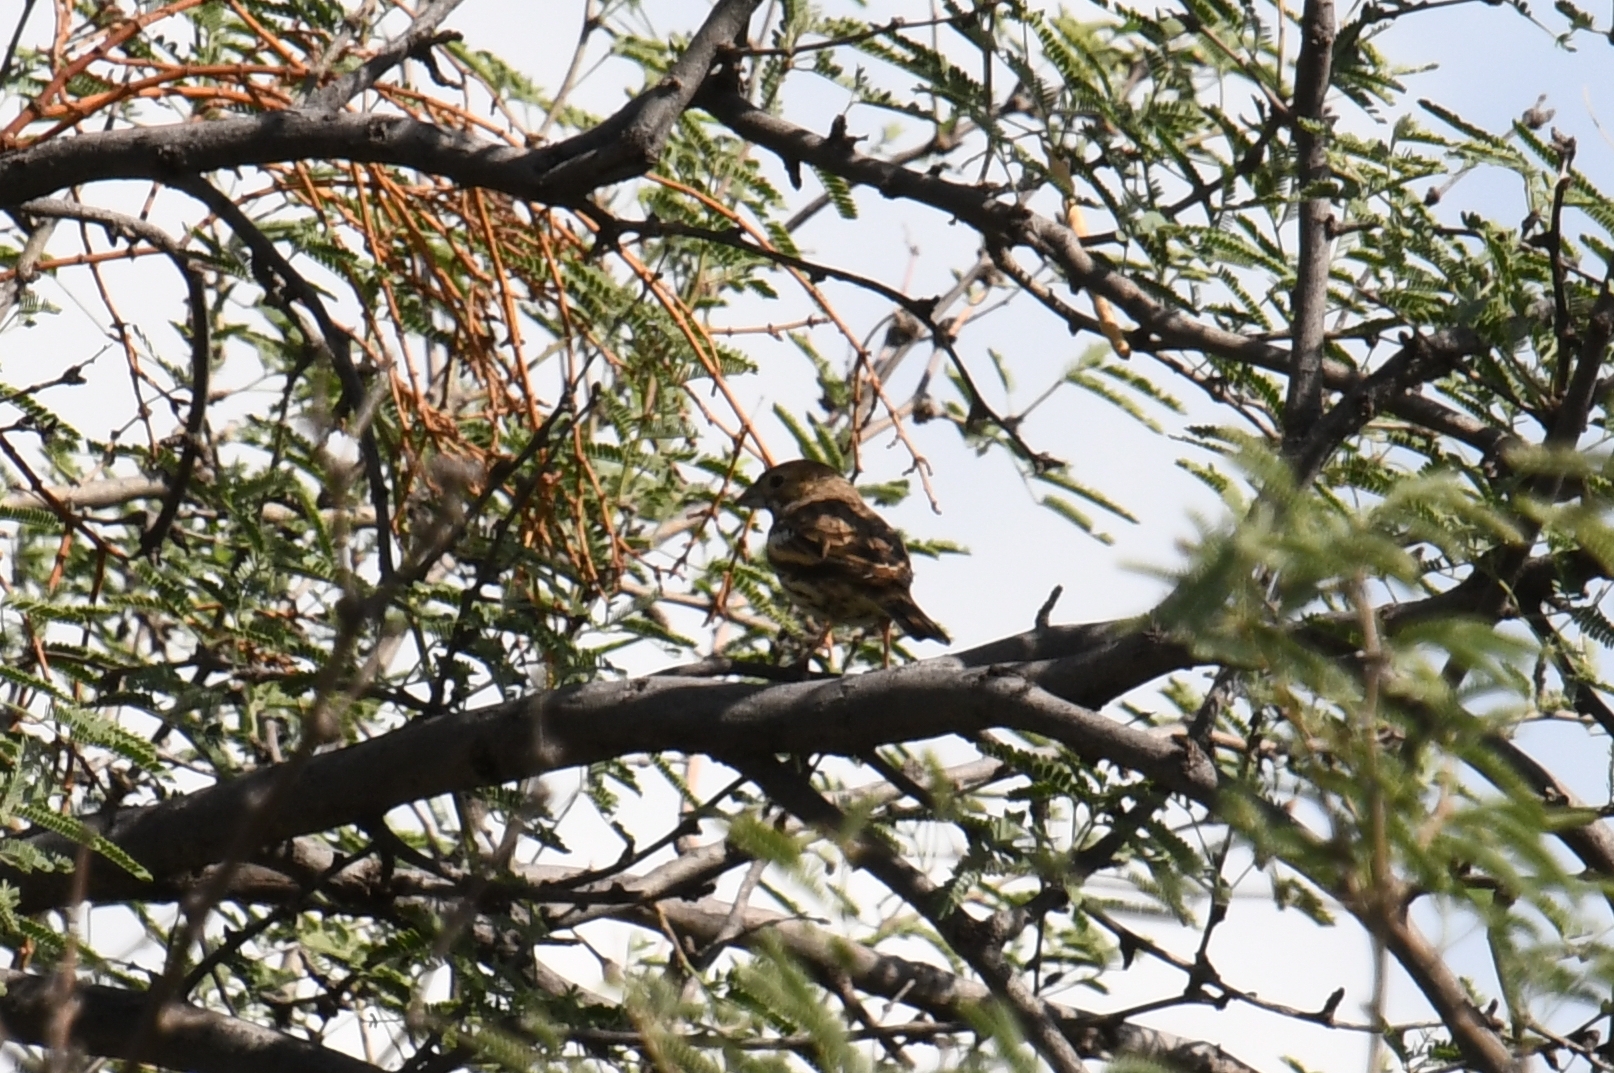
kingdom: Animalia
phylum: Chordata
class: Aves
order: Passeriformes
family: Passerellidae
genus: Calamospiza
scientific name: Calamospiza melanocorys
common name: Lark bunting
